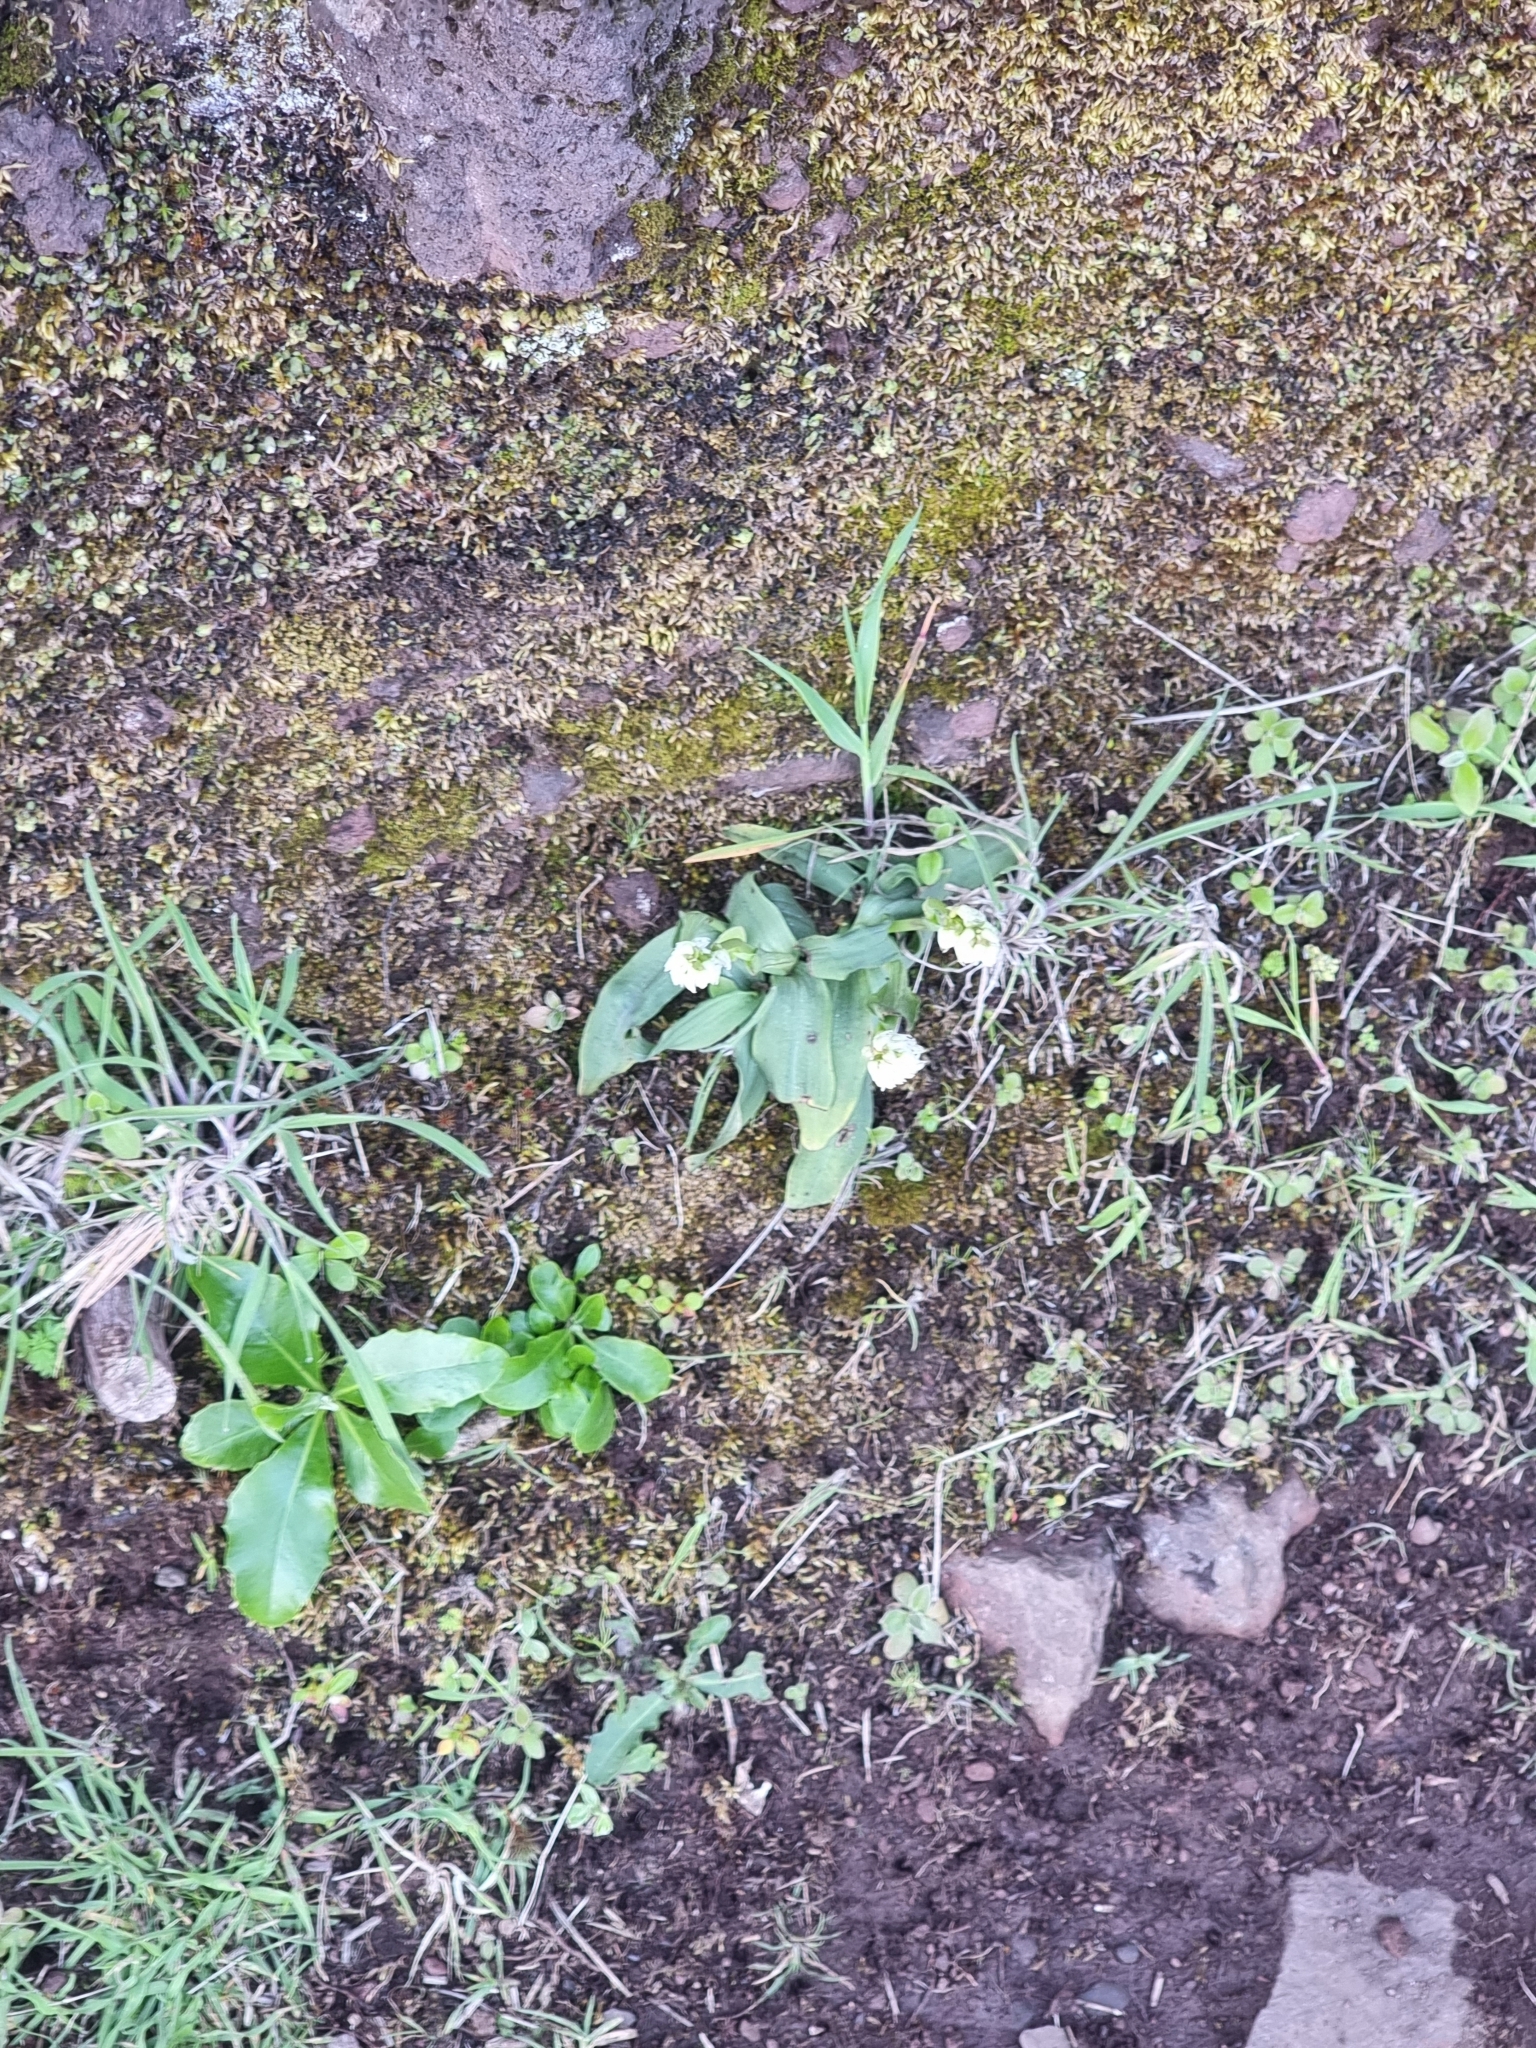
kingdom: Plantae
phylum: Tracheophyta
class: Liliopsida
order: Asparagales
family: Orchidaceae
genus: Neotinea
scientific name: Neotinea maculata
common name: Dense-flowered orchid
